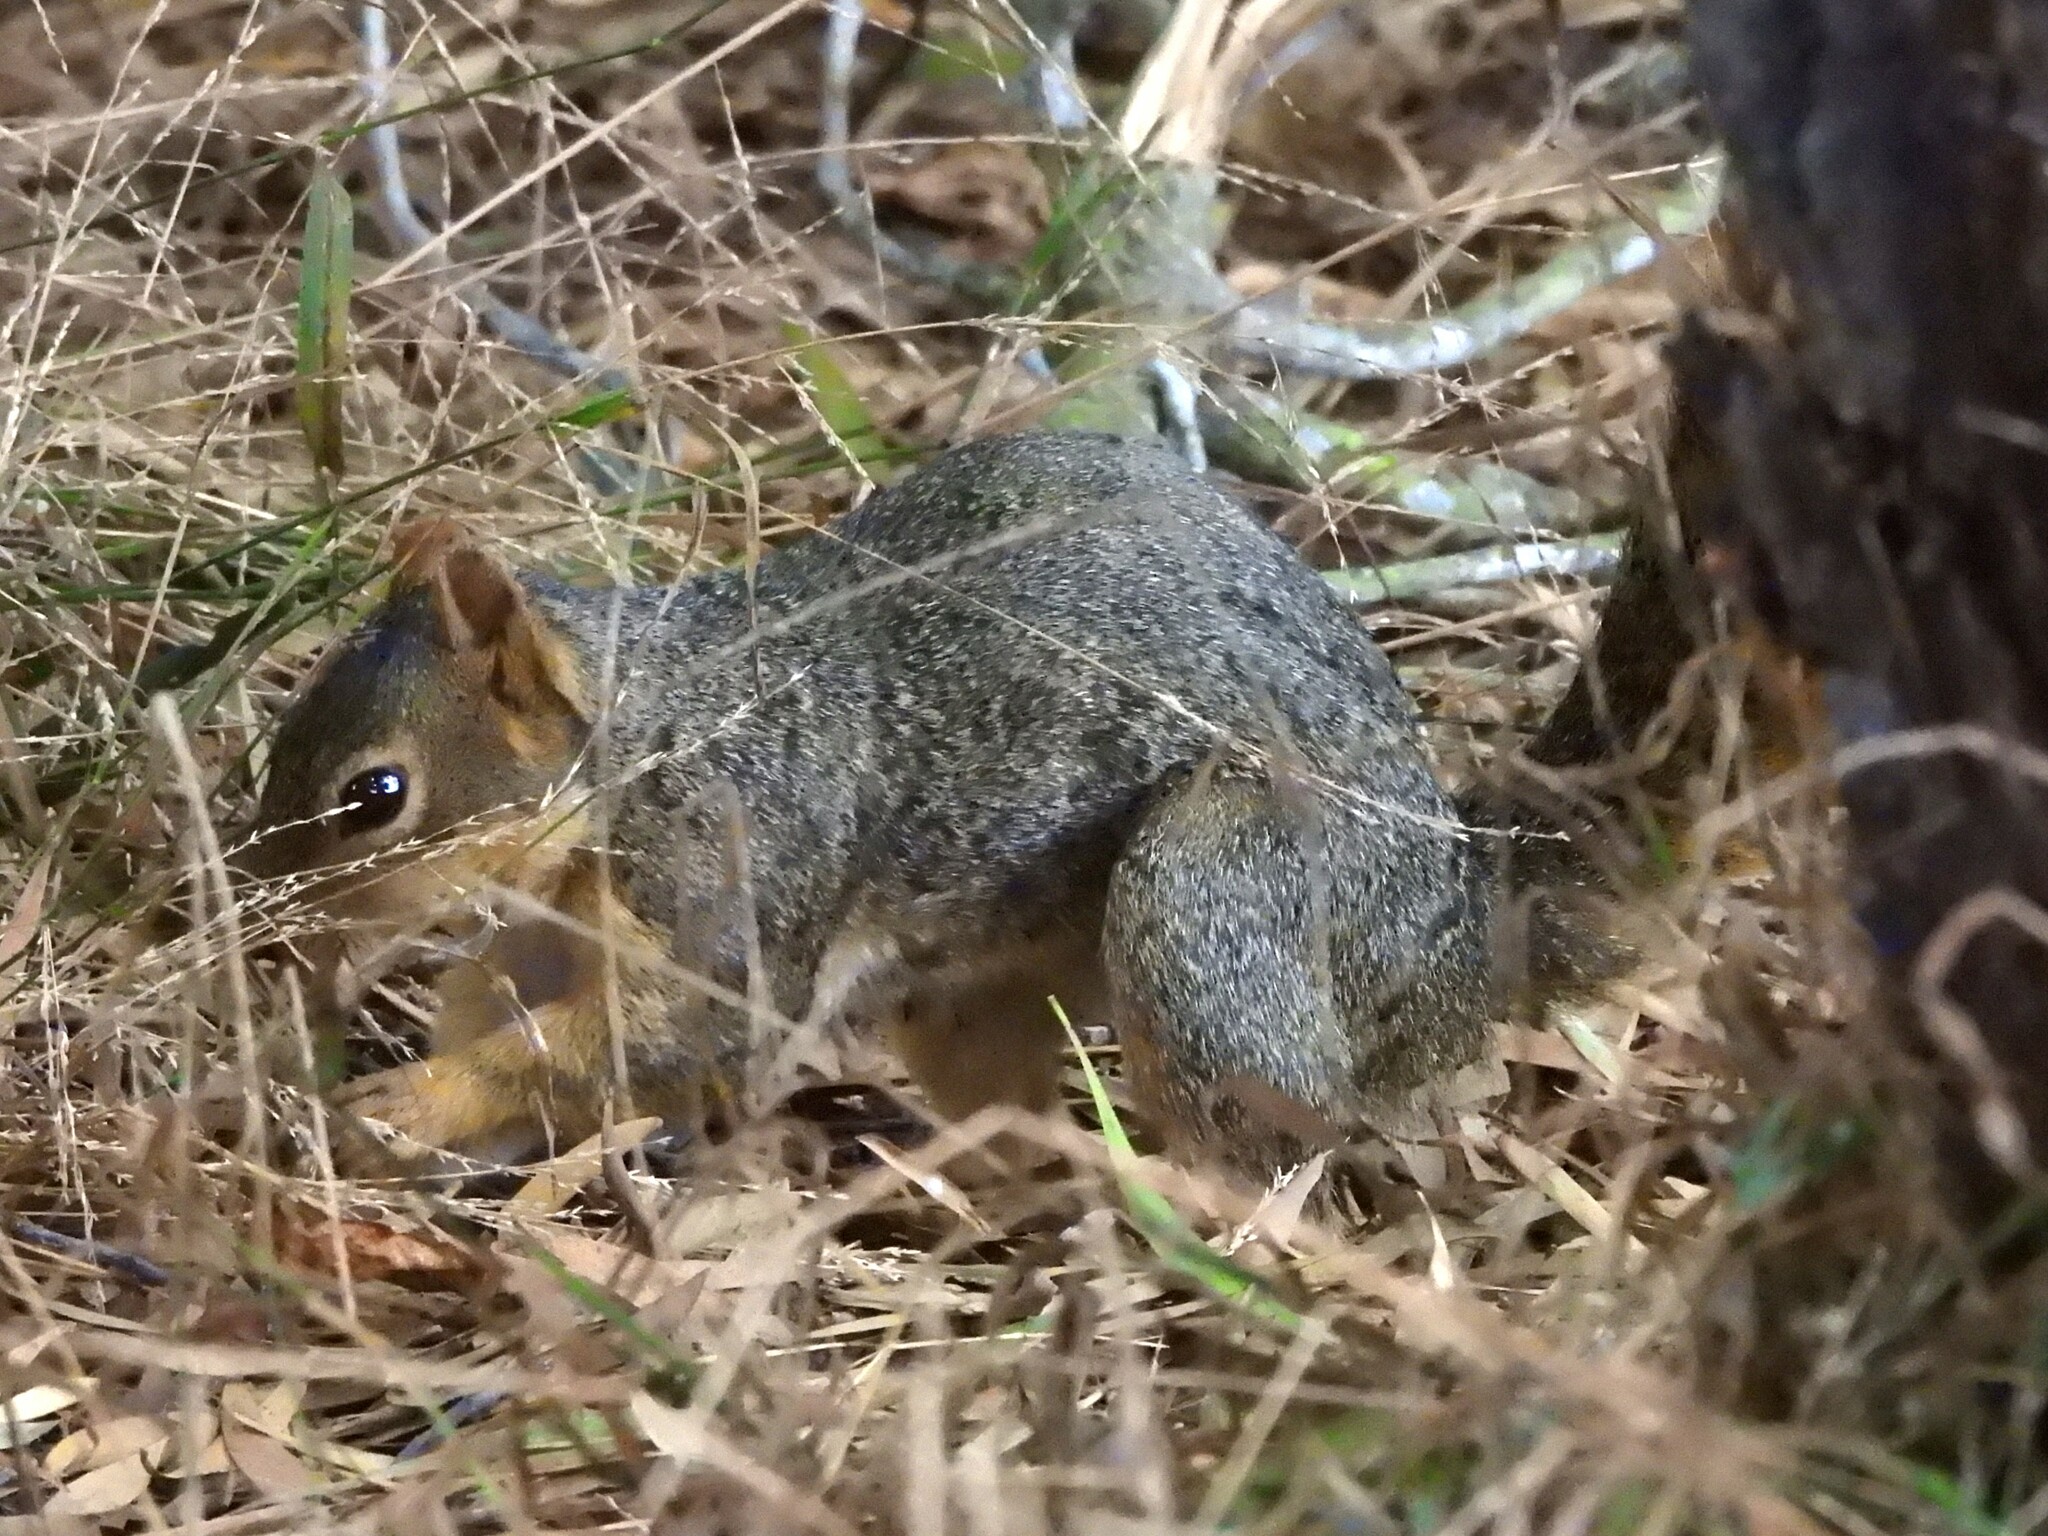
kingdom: Animalia
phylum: Chordata
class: Mammalia
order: Rodentia
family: Sciuridae
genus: Sciurus
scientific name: Sciurus niger
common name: Fox squirrel
